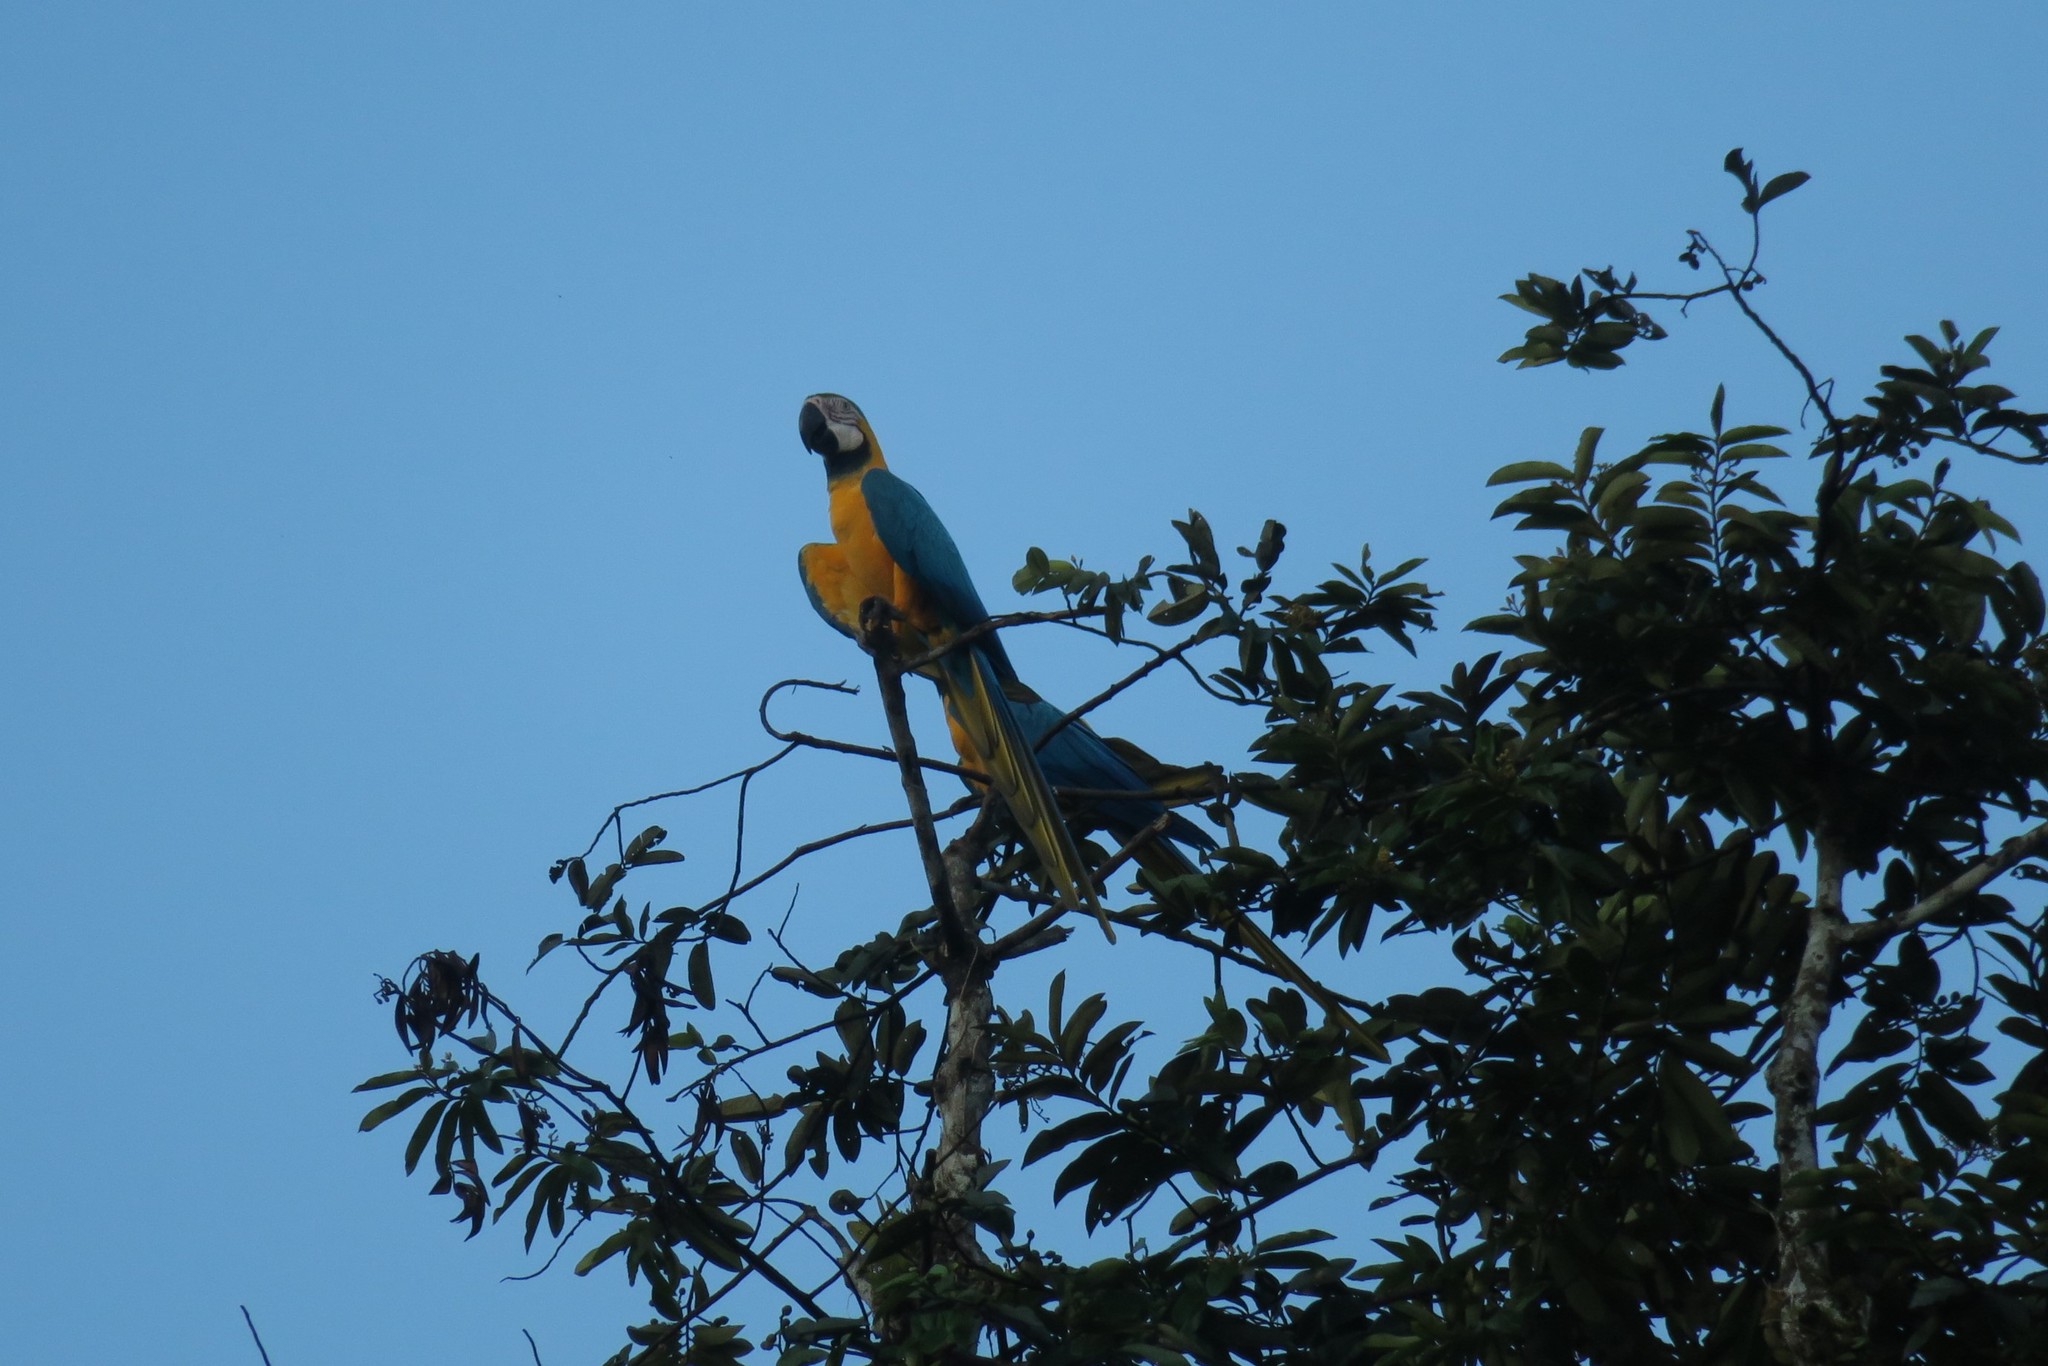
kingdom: Animalia
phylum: Chordata
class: Aves
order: Psittaciformes
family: Psittacidae
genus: Ara
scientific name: Ara ararauna
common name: Blue-and-yellow macaw
